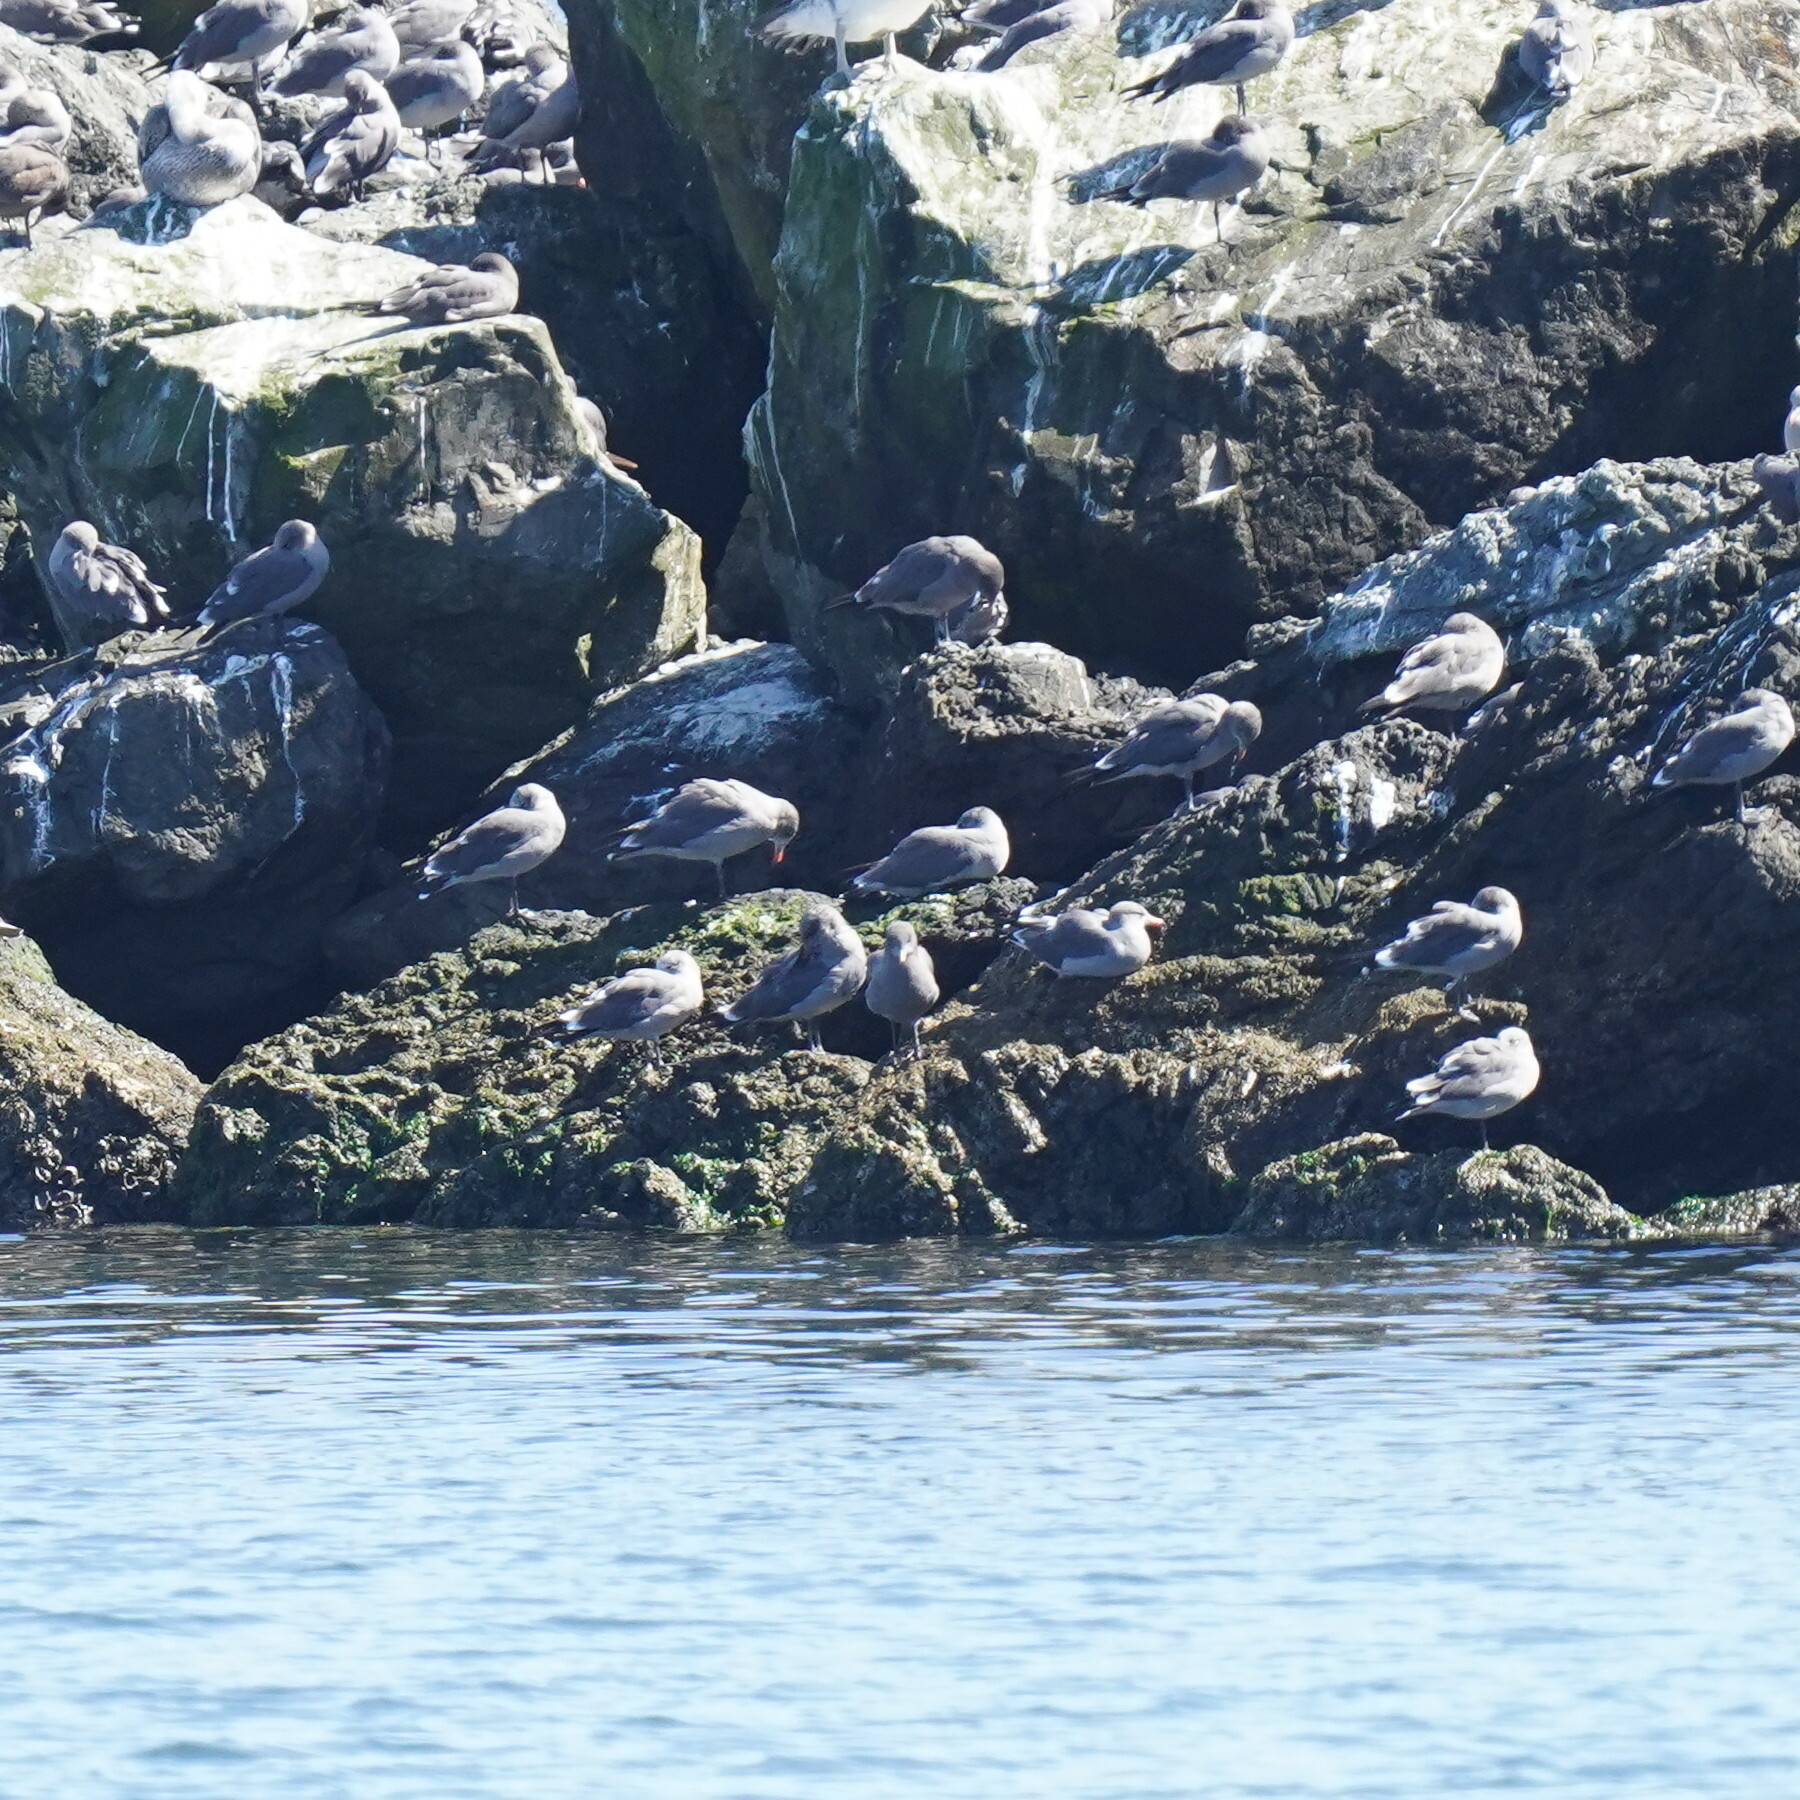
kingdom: Animalia
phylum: Chordata
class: Aves
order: Charadriiformes
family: Laridae
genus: Larus
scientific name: Larus heermanni
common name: Heermann's gull
